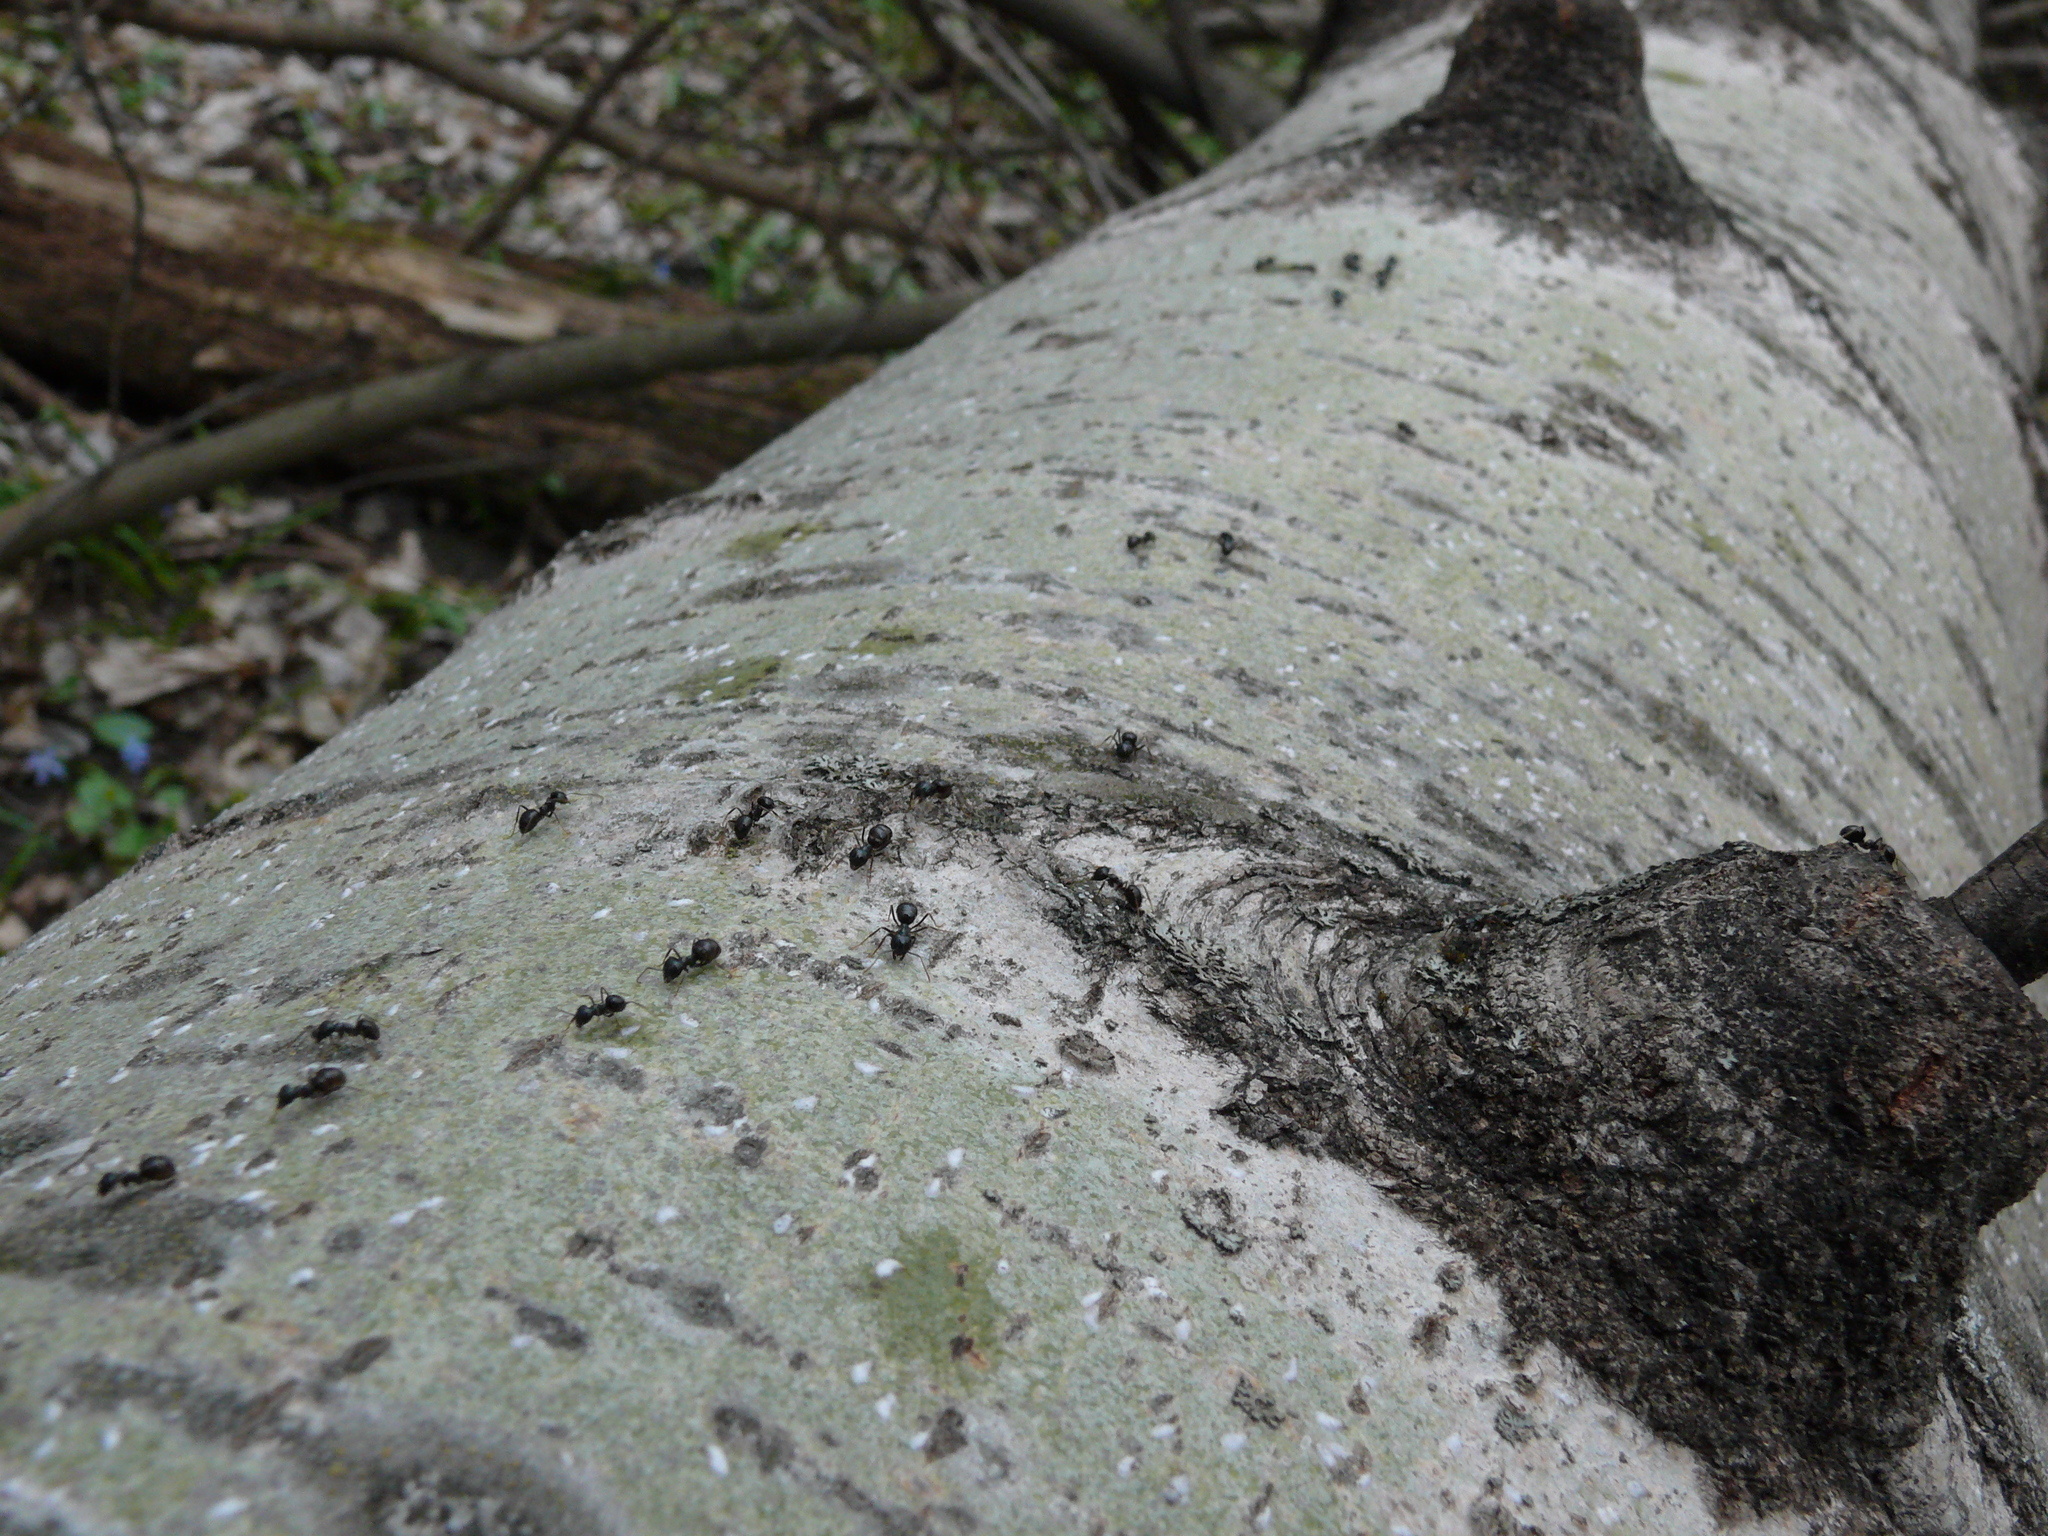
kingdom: Animalia
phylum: Arthropoda
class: Insecta
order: Hymenoptera
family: Formicidae
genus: Lasius
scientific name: Lasius fuliginosus
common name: Jet ant
